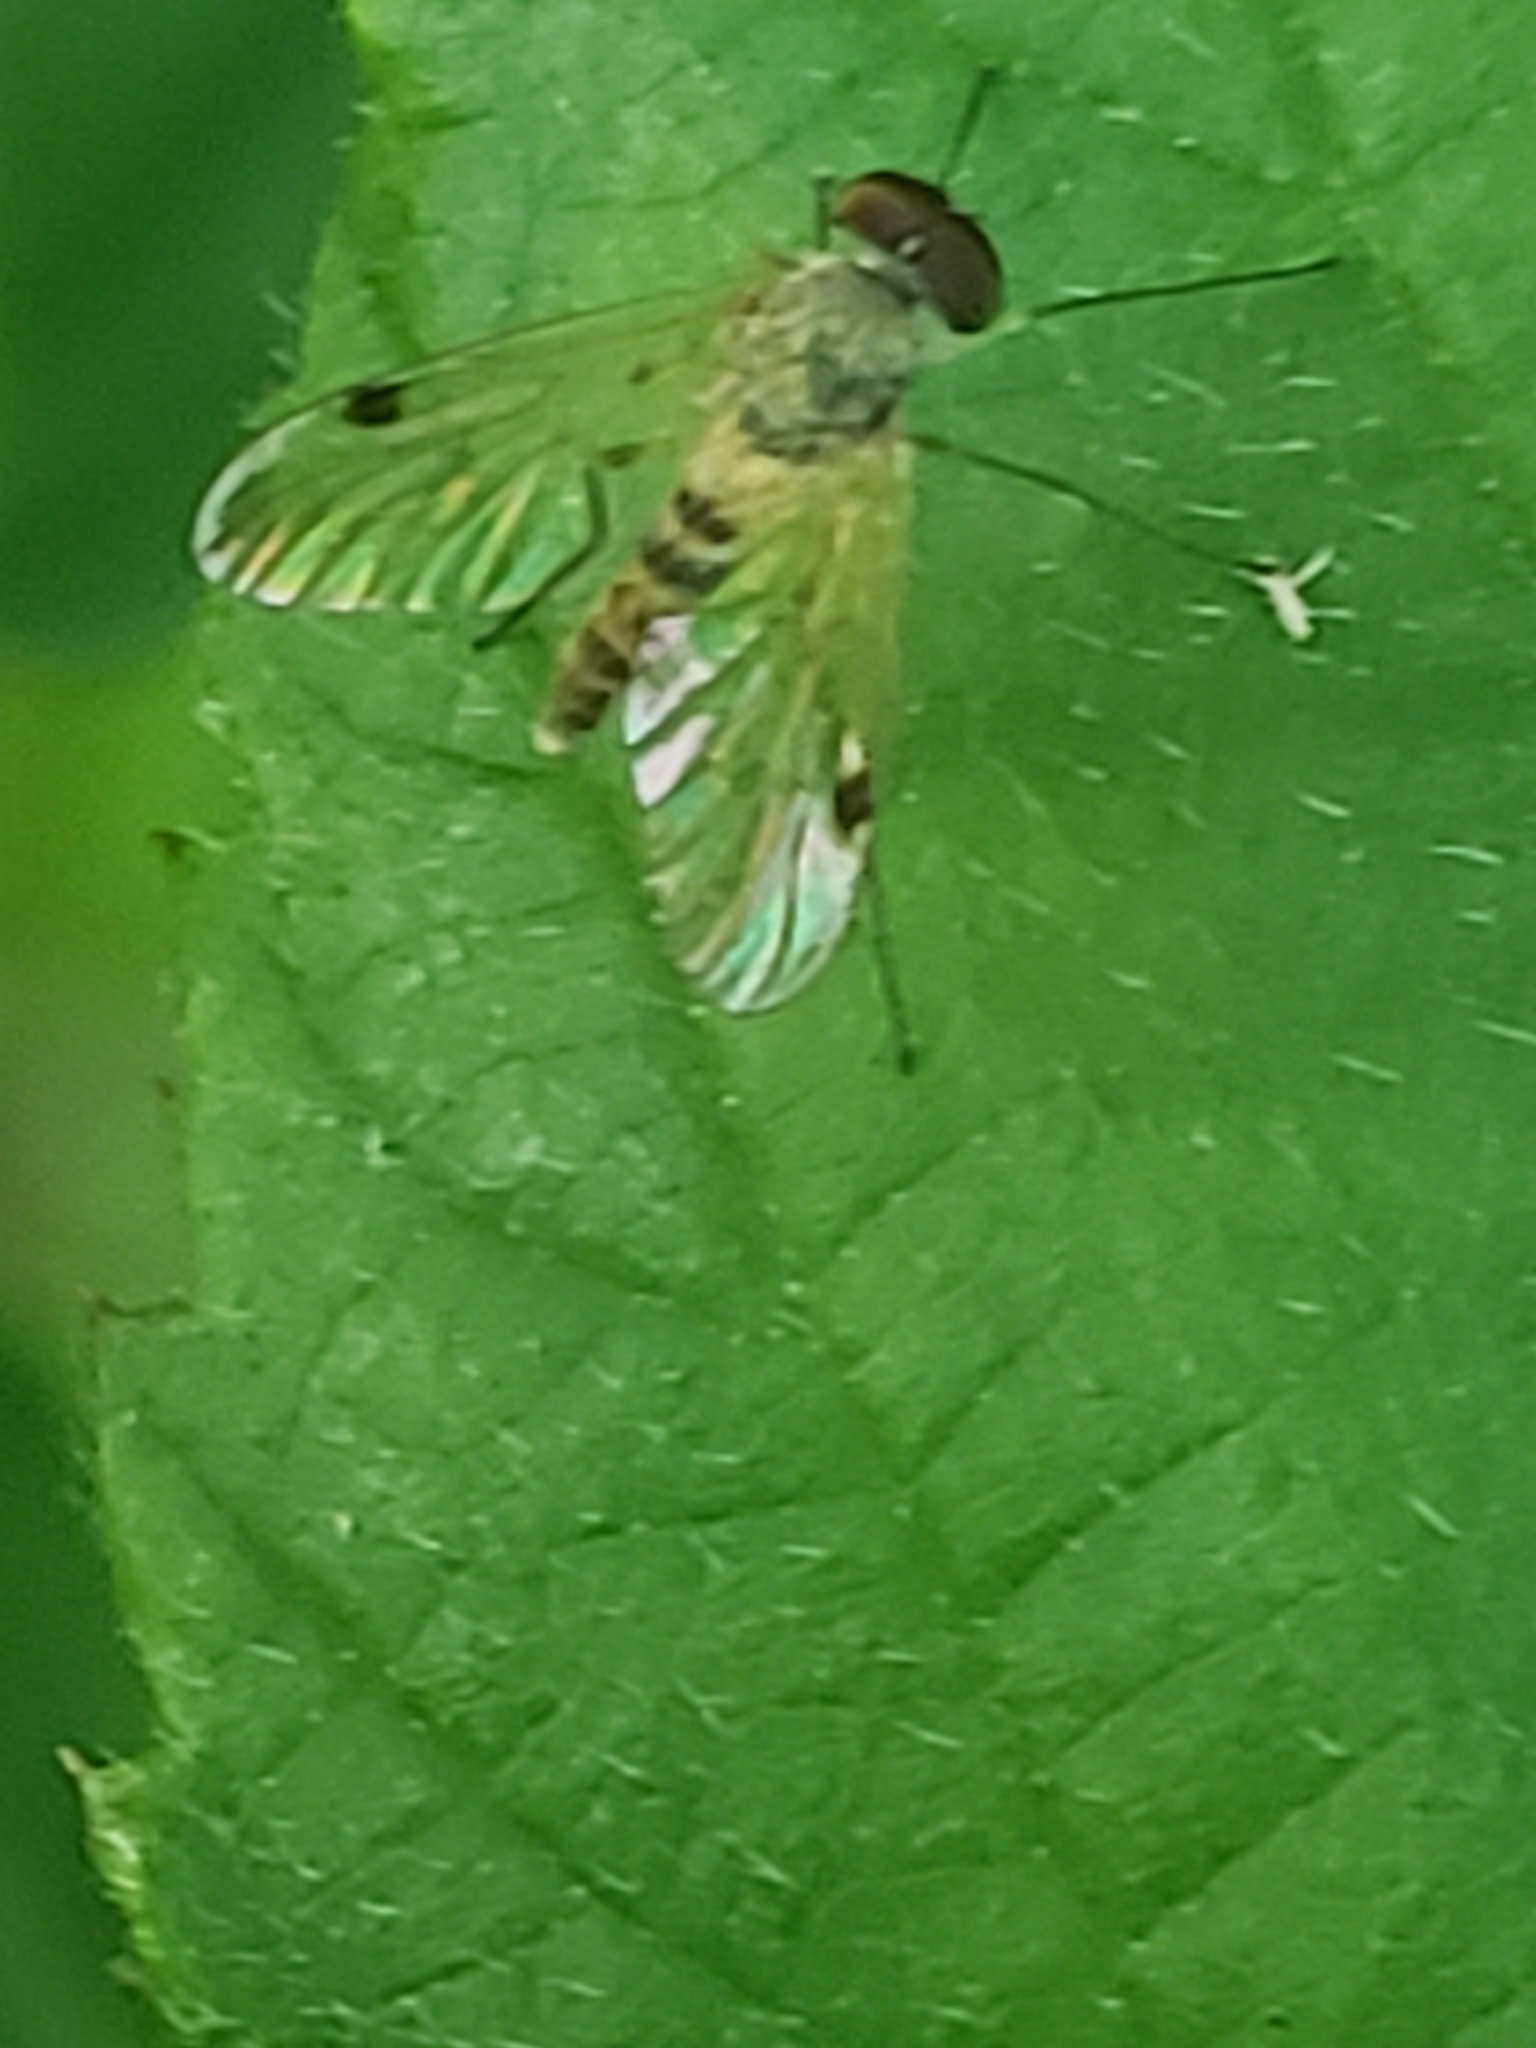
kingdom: Animalia
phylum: Arthropoda
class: Insecta
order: Diptera
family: Rhagionidae
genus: Chrysopilus
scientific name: Chrysopilus modestus
